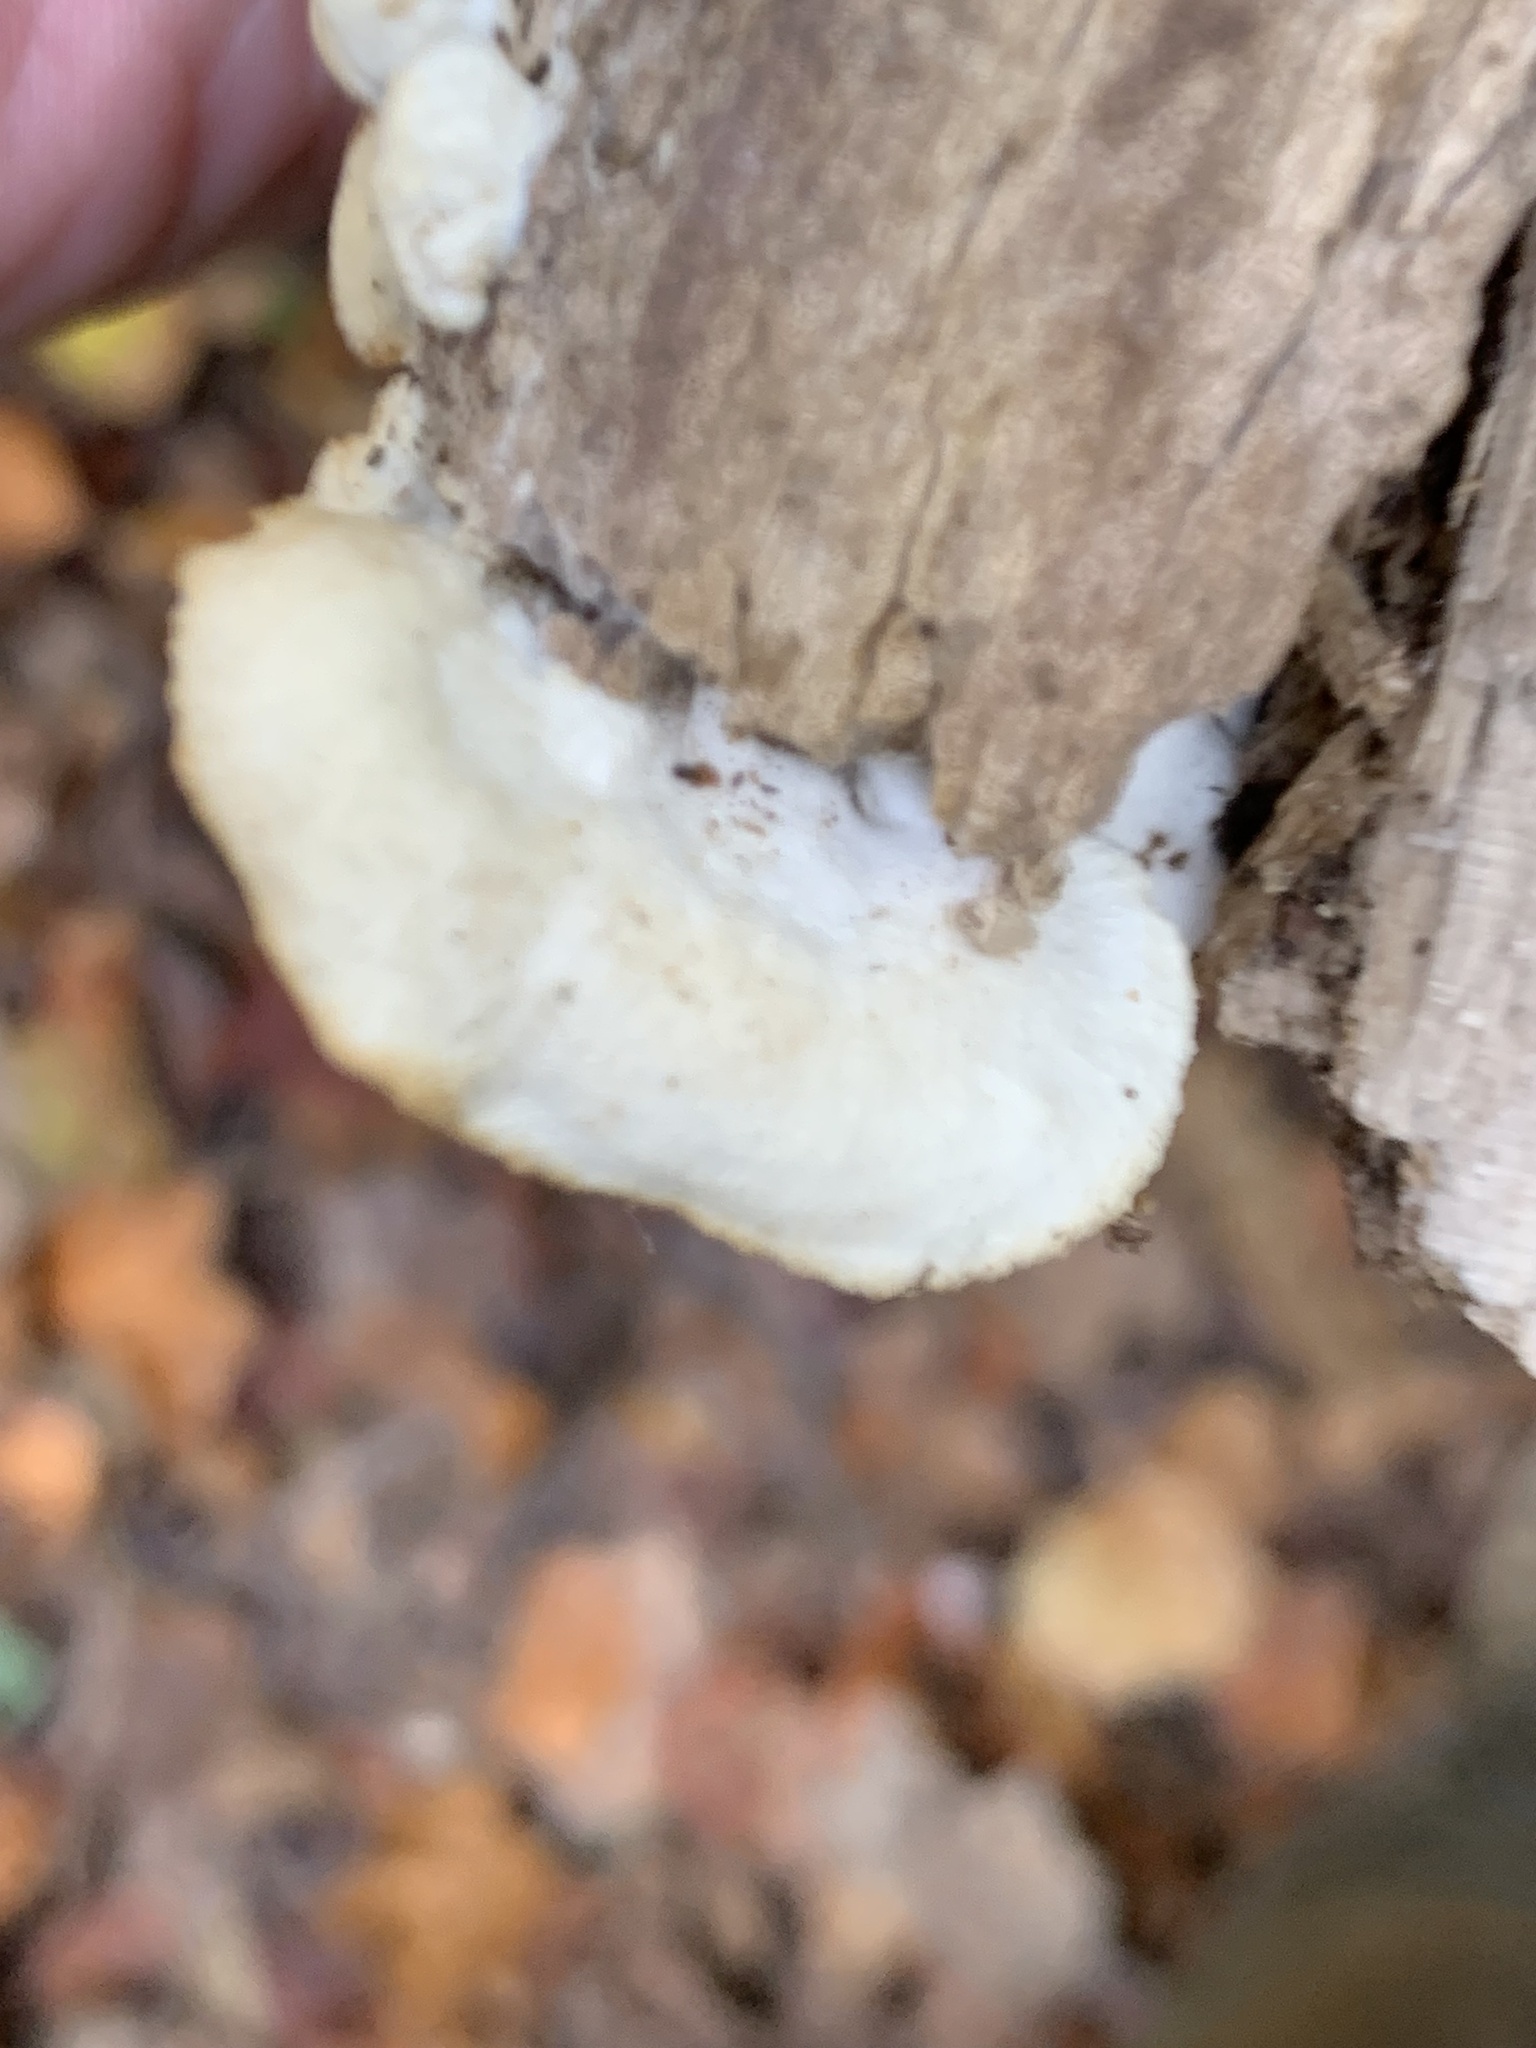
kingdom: Fungi
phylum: Basidiomycota
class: Agaricomycetes
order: Polyporales
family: Ischnodermataceae
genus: Ischnoderma
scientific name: Ischnoderma resinosum
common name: Resinous polypore
